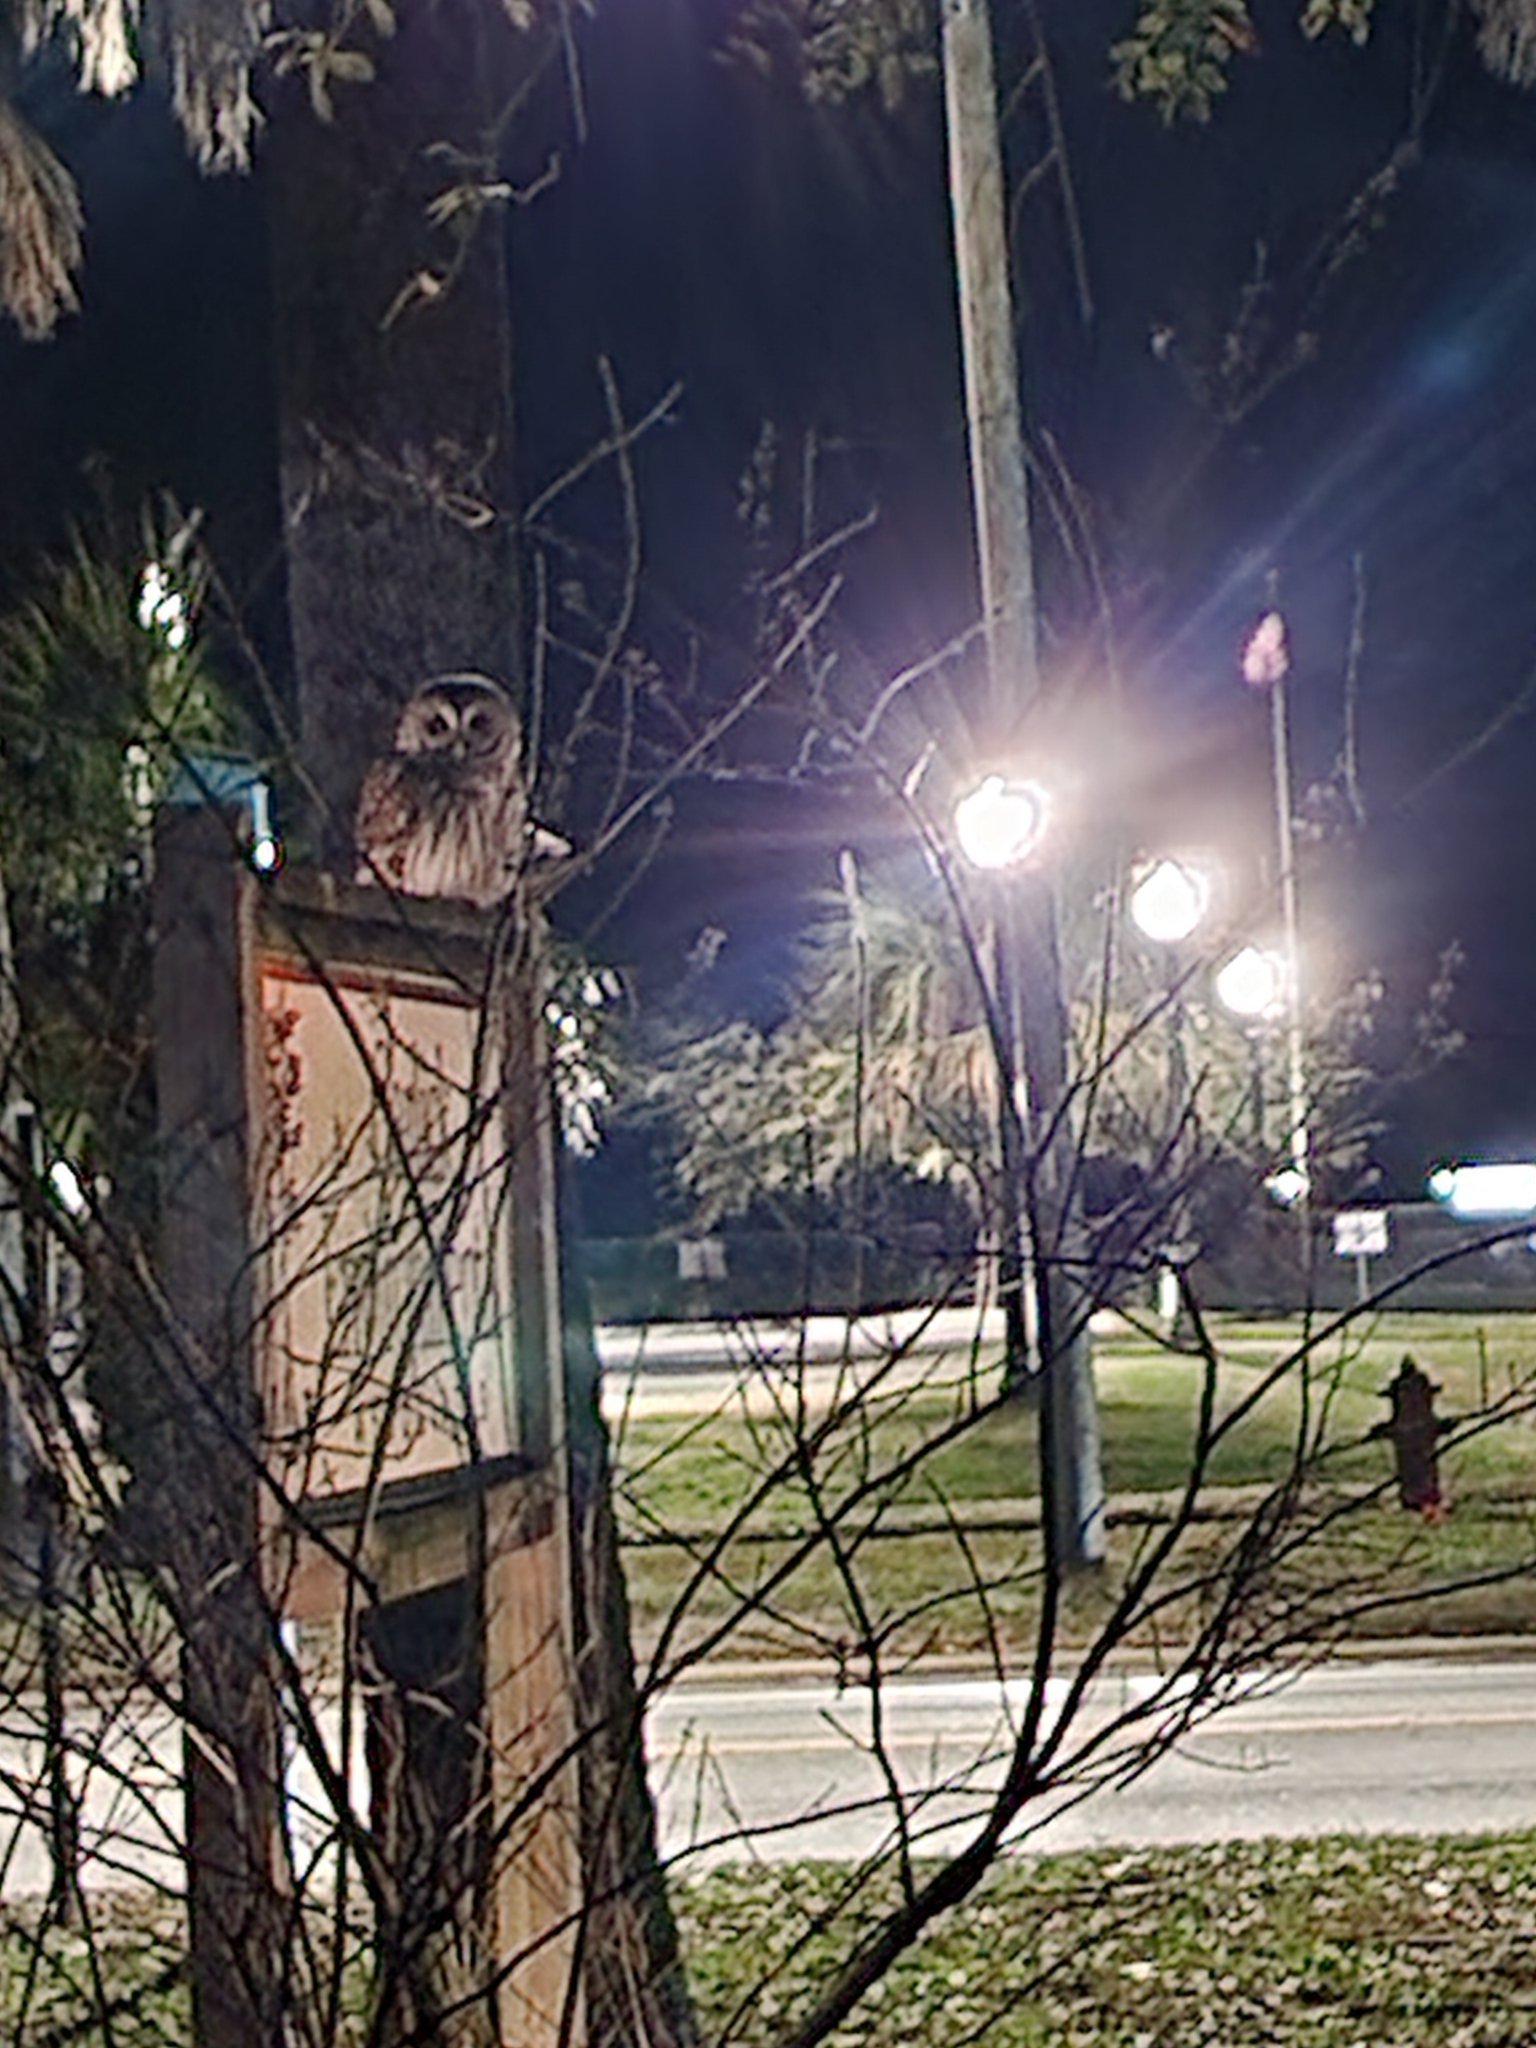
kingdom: Animalia
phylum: Chordata
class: Aves
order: Strigiformes
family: Strigidae
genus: Strix
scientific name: Strix varia
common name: Barred owl
